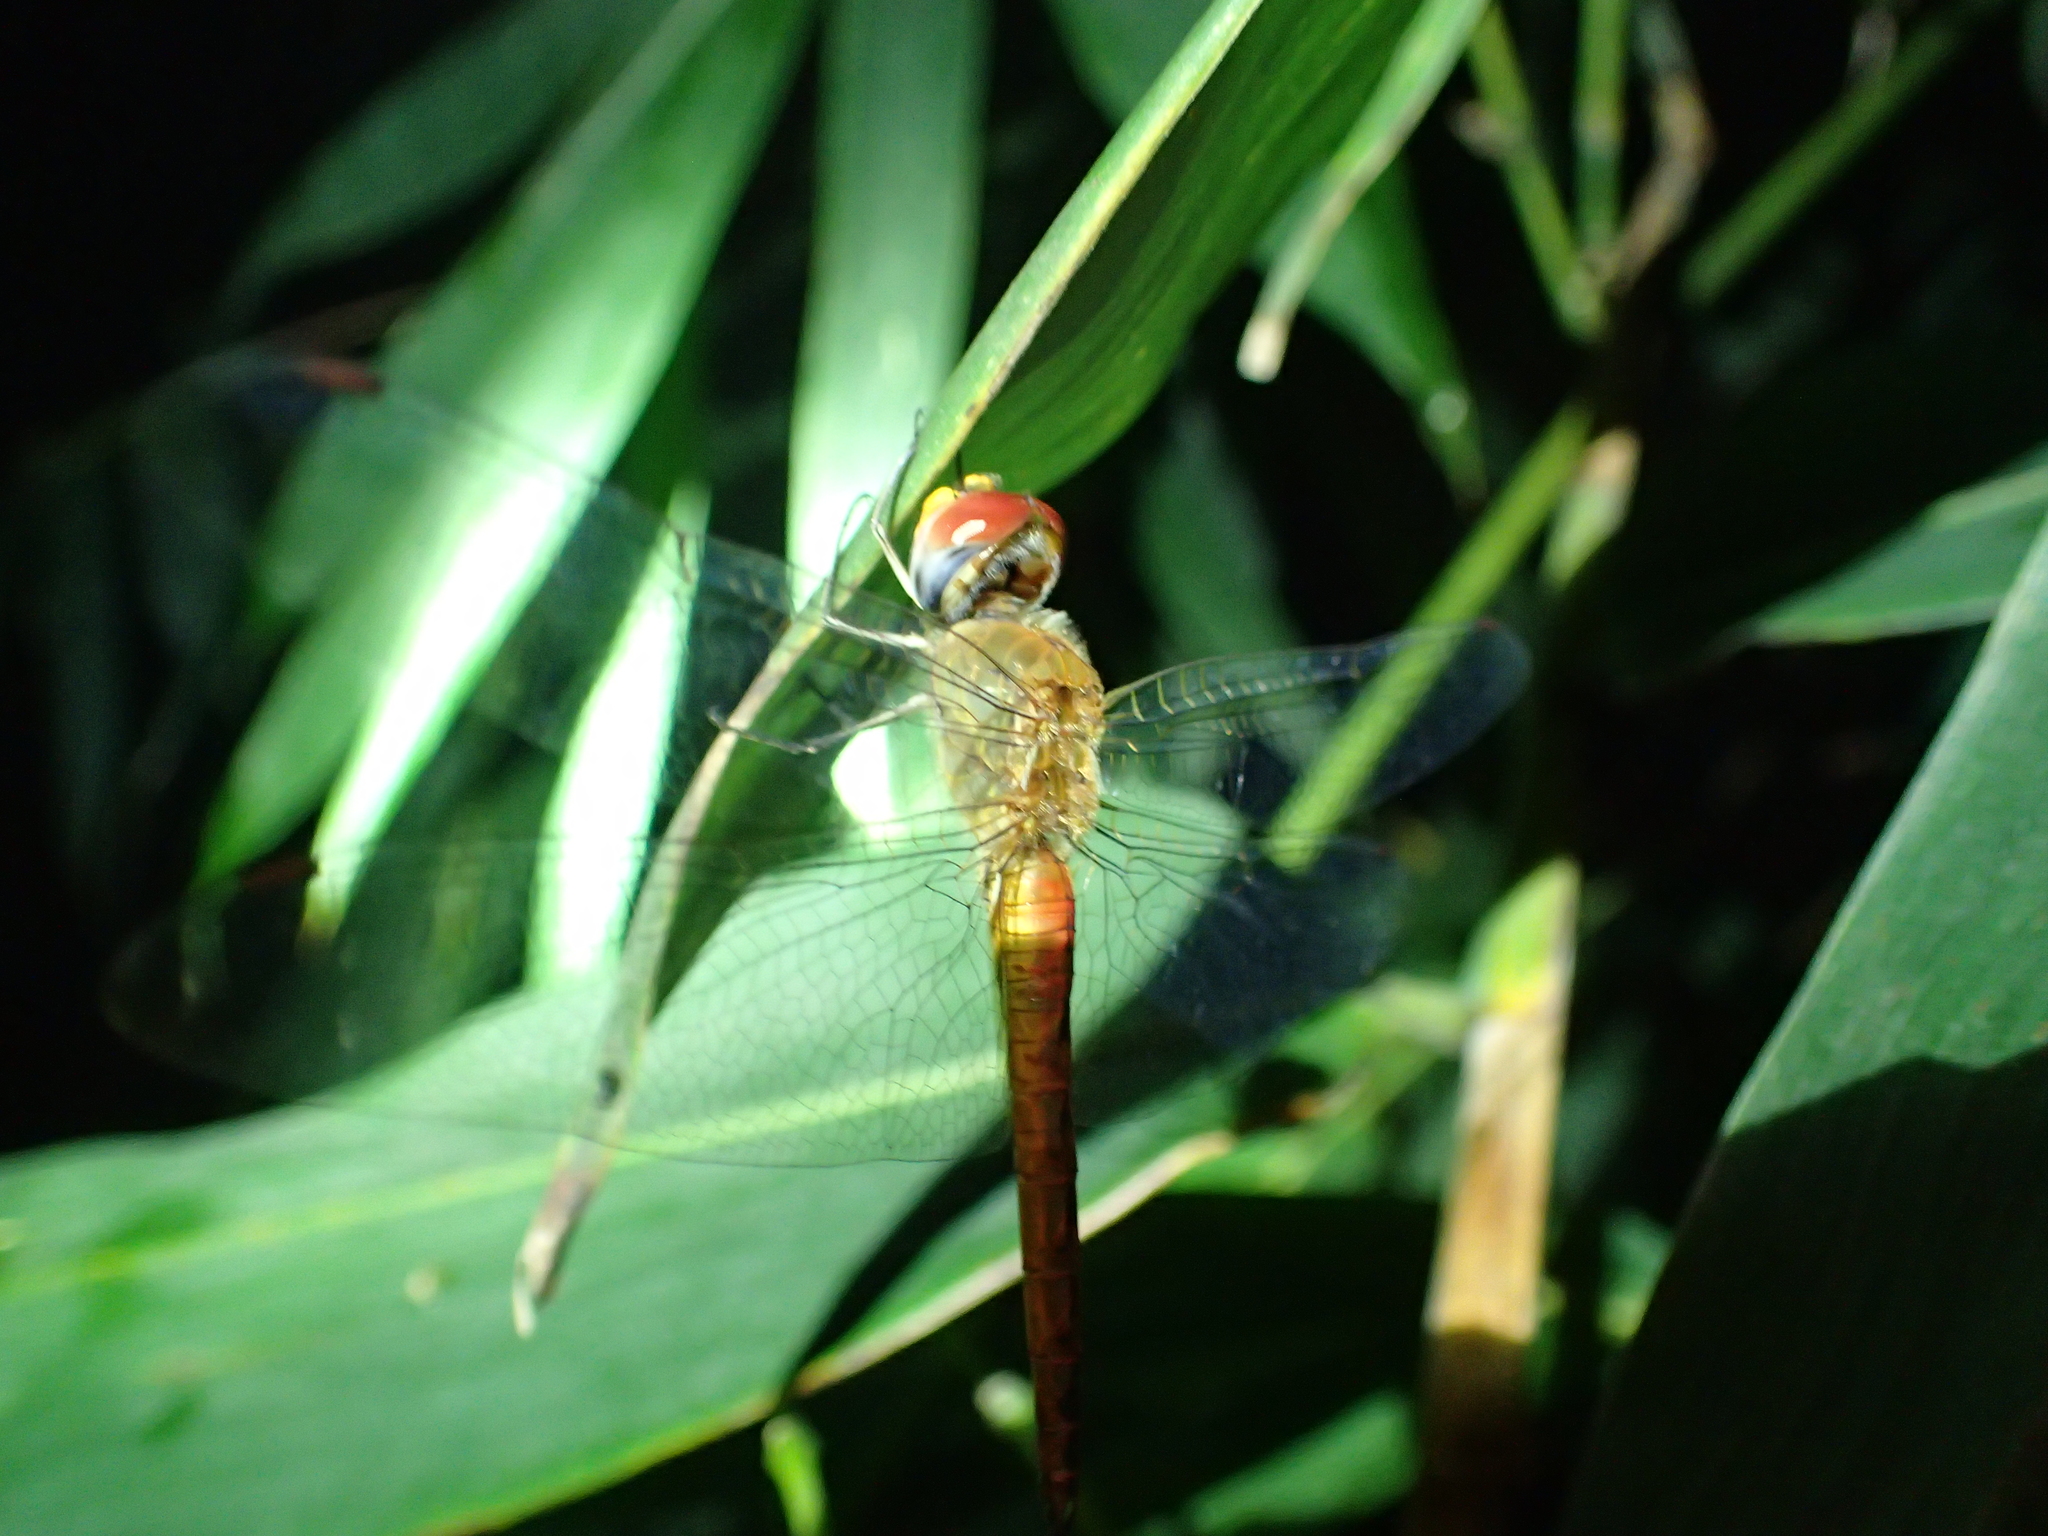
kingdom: Animalia
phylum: Arthropoda
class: Insecta
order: Odonata
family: Libellulidae
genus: Pantala
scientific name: Pantala flavescens
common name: Wandering glider
